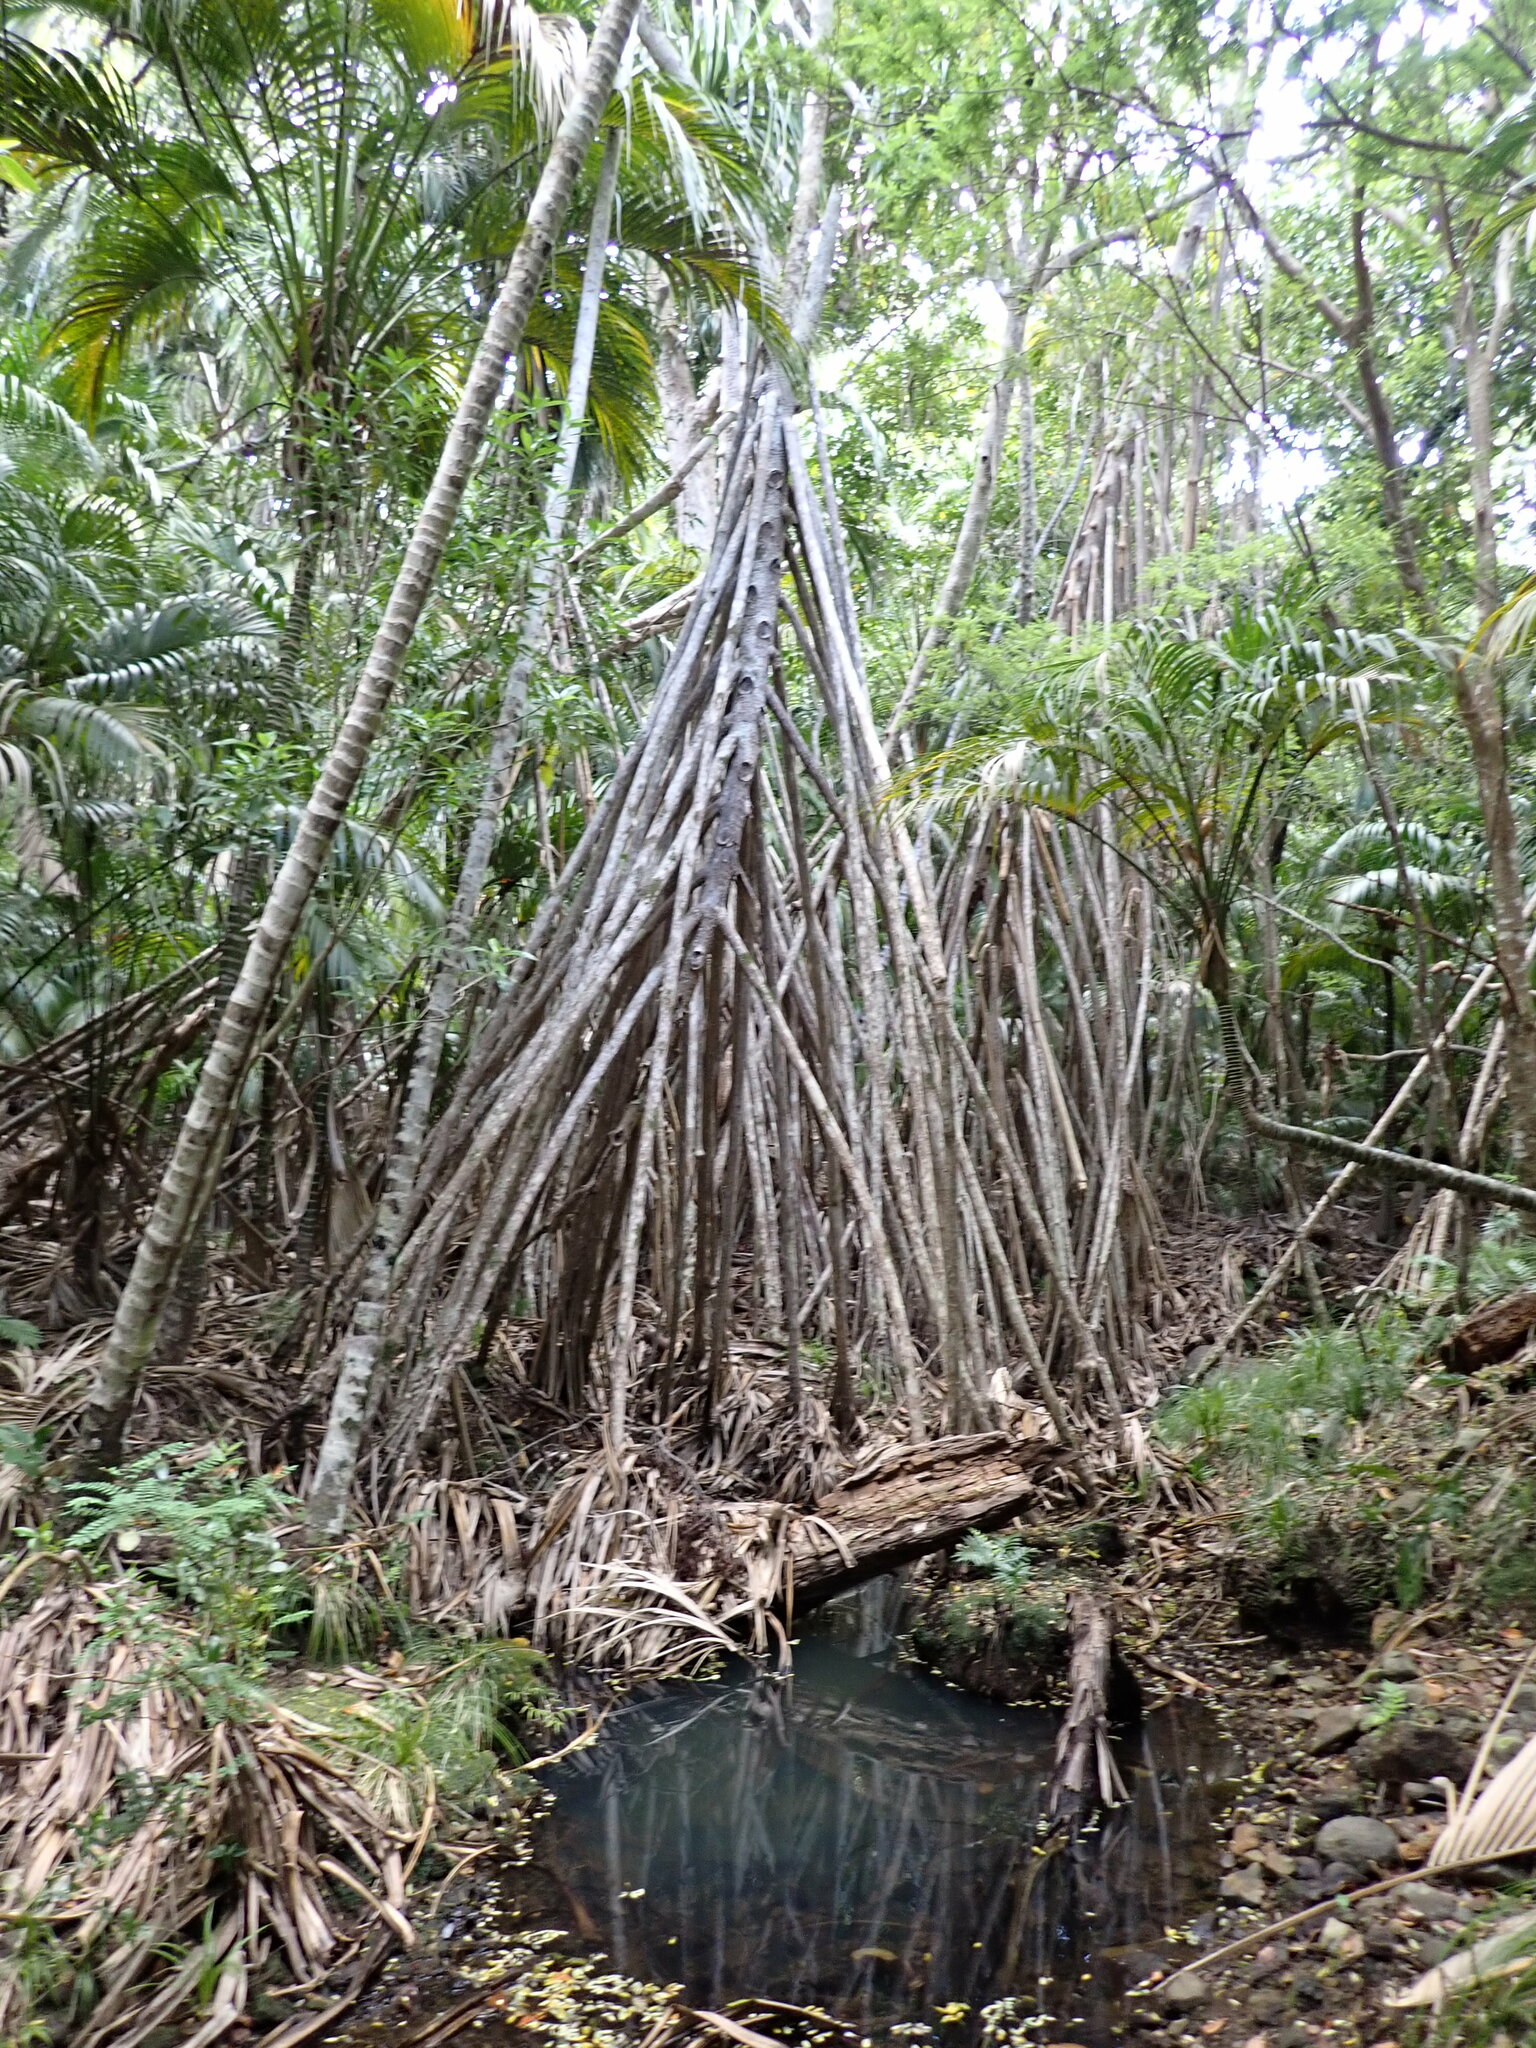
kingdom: Plantae
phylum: Tracheophyta
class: Liliopsida
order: Pandanales
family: Pandanaceae
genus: Pandanus
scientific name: Pandanus forsteri
